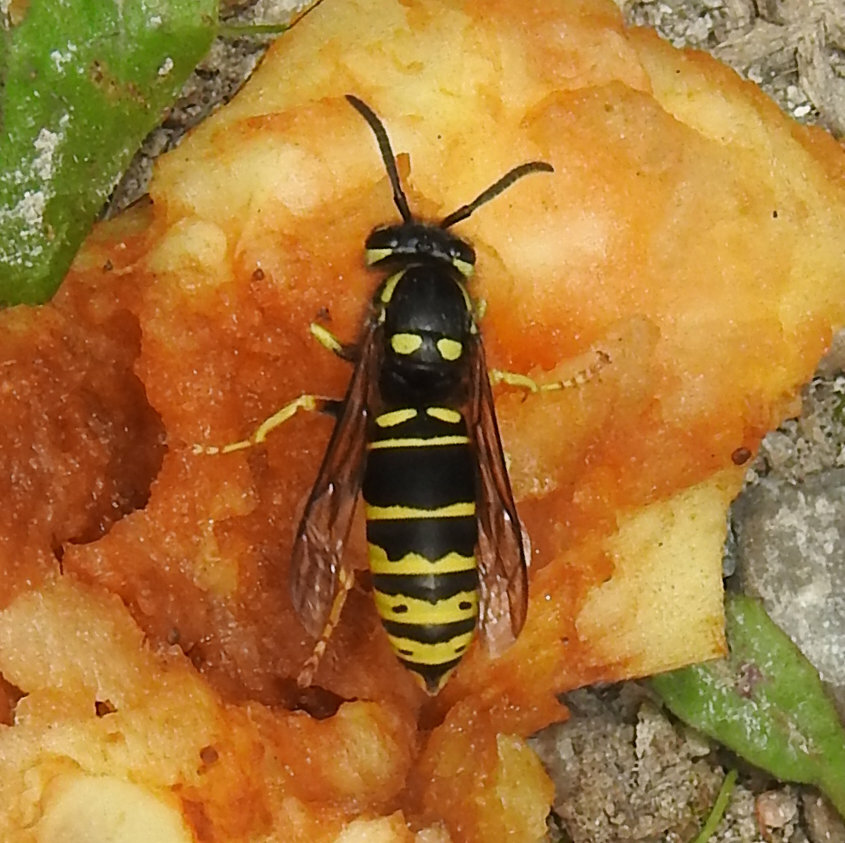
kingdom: Animalia
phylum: Arthropoda
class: Insecta
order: Hymenoptera
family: Vespidae
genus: Vespula
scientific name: Vespula vidua
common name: Widow yellowjacket
